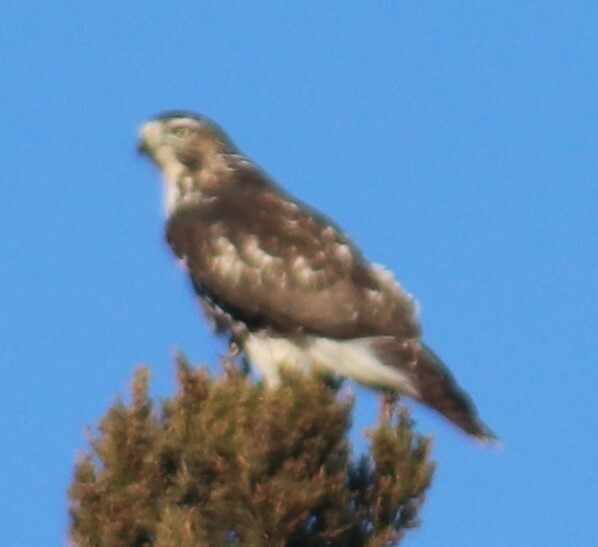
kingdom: Animalia
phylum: Chordata
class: Aves
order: Accipitriformes
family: Accipitridae
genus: Buteo
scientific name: Buteo jamaicensis
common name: Red-tailed hawk
